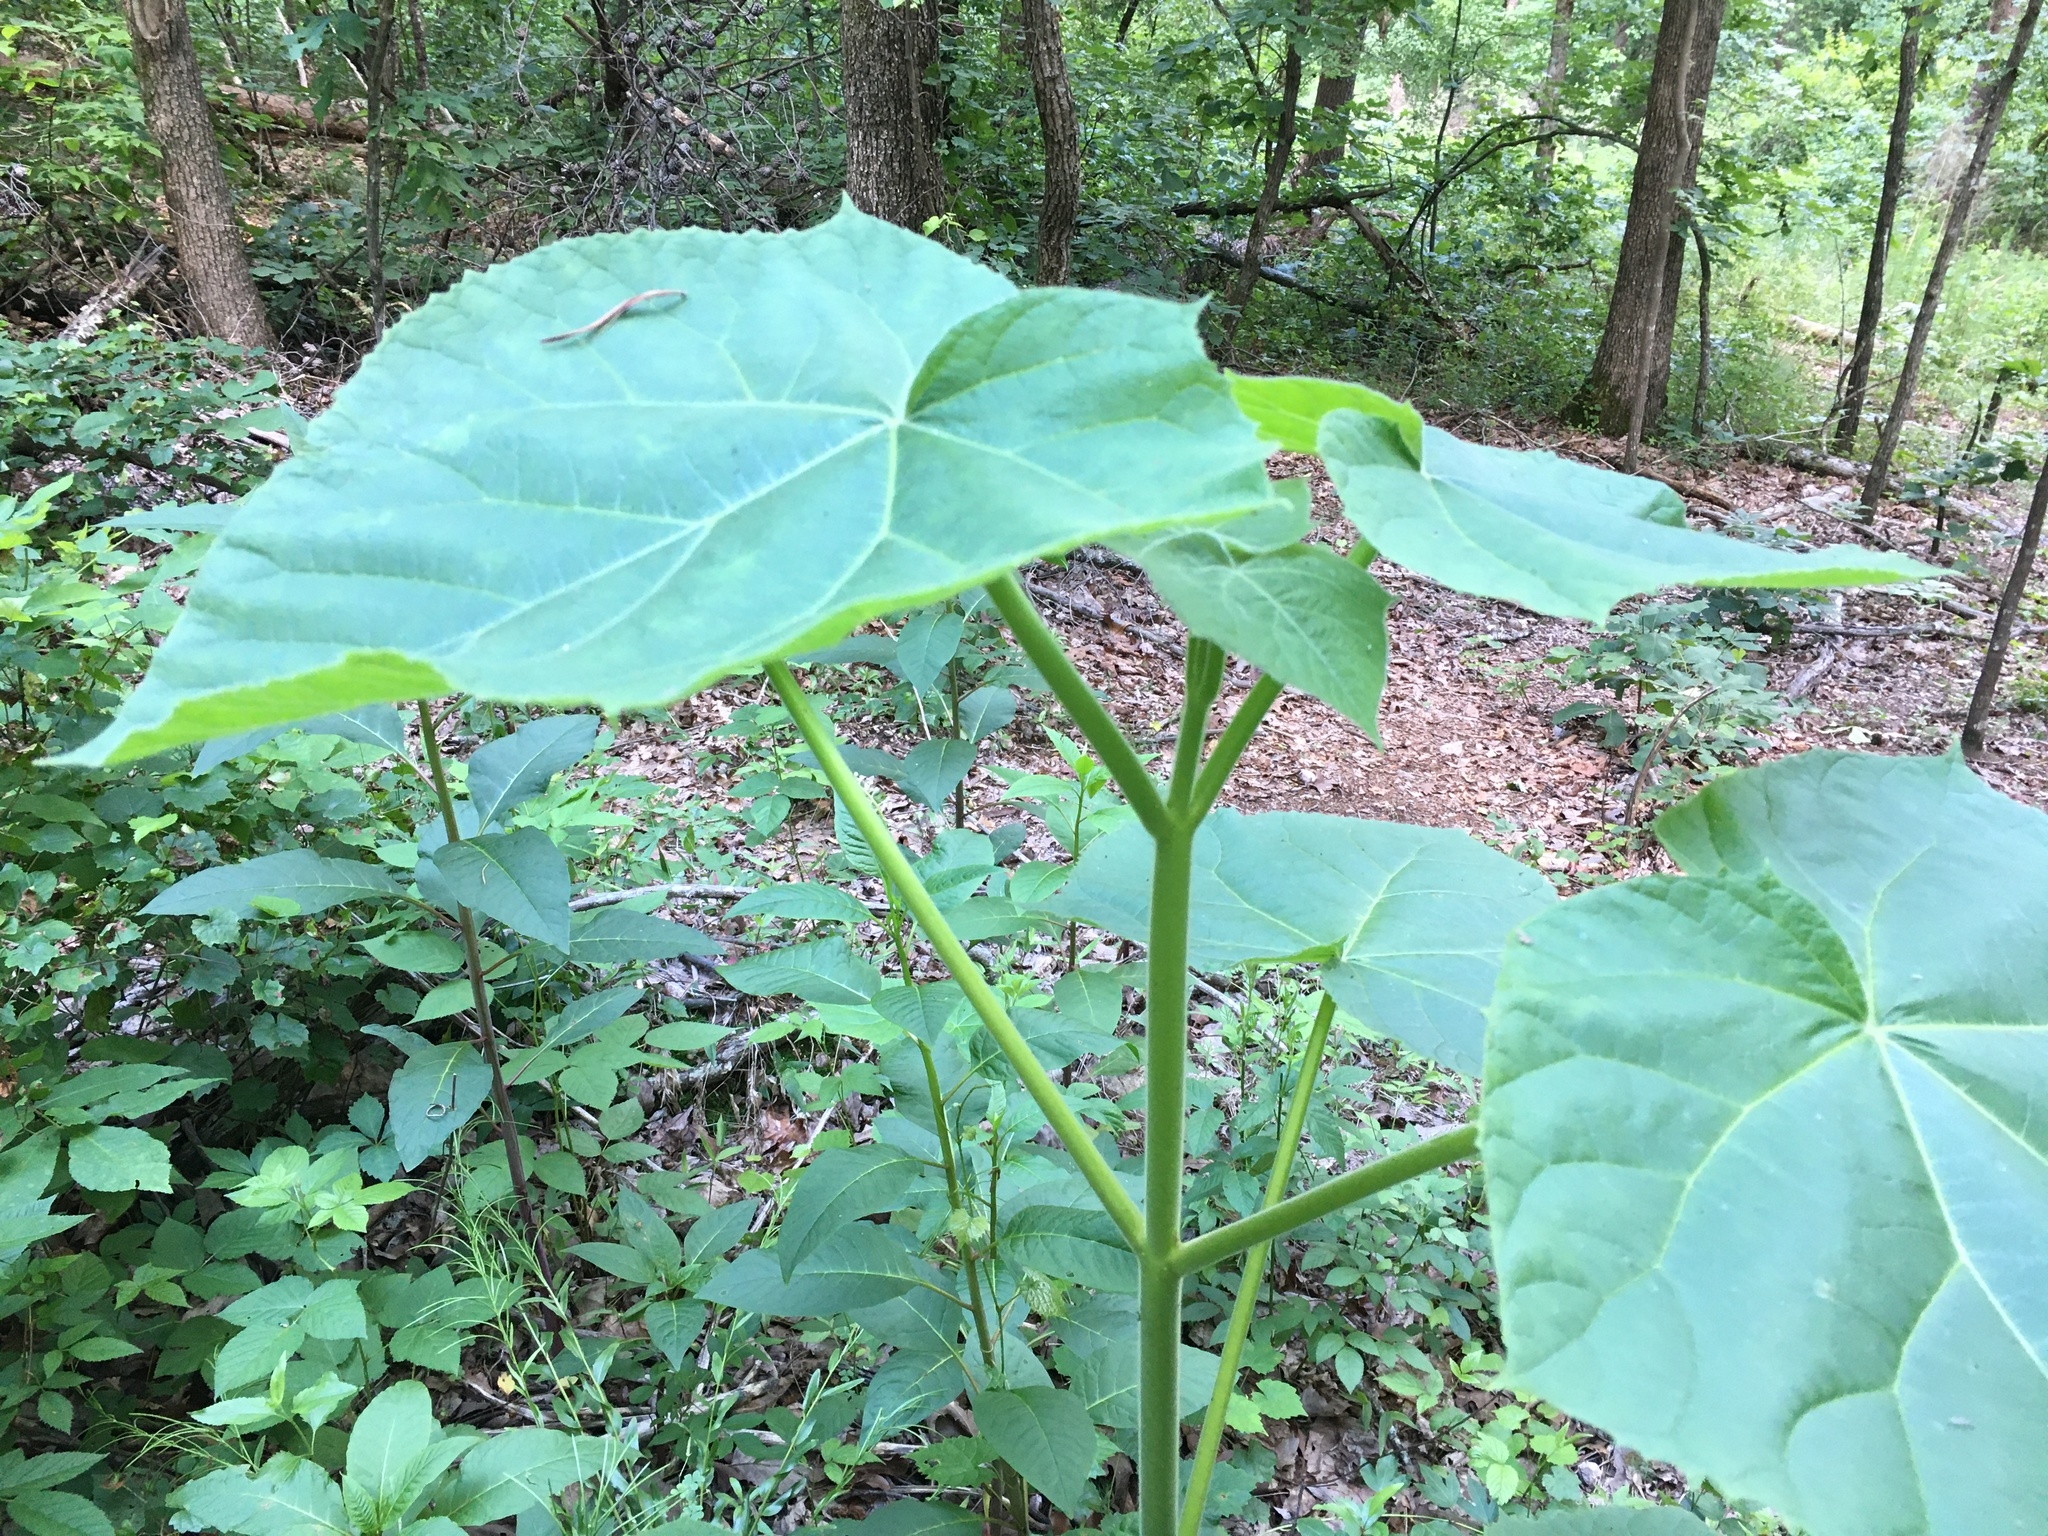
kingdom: Plantae
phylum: Tracheophyta
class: Magnoliopsida
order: Lamiales
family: Paulowniaceae
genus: Paulownia
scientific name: Paulownia tomentosa
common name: Foxglove-tree
